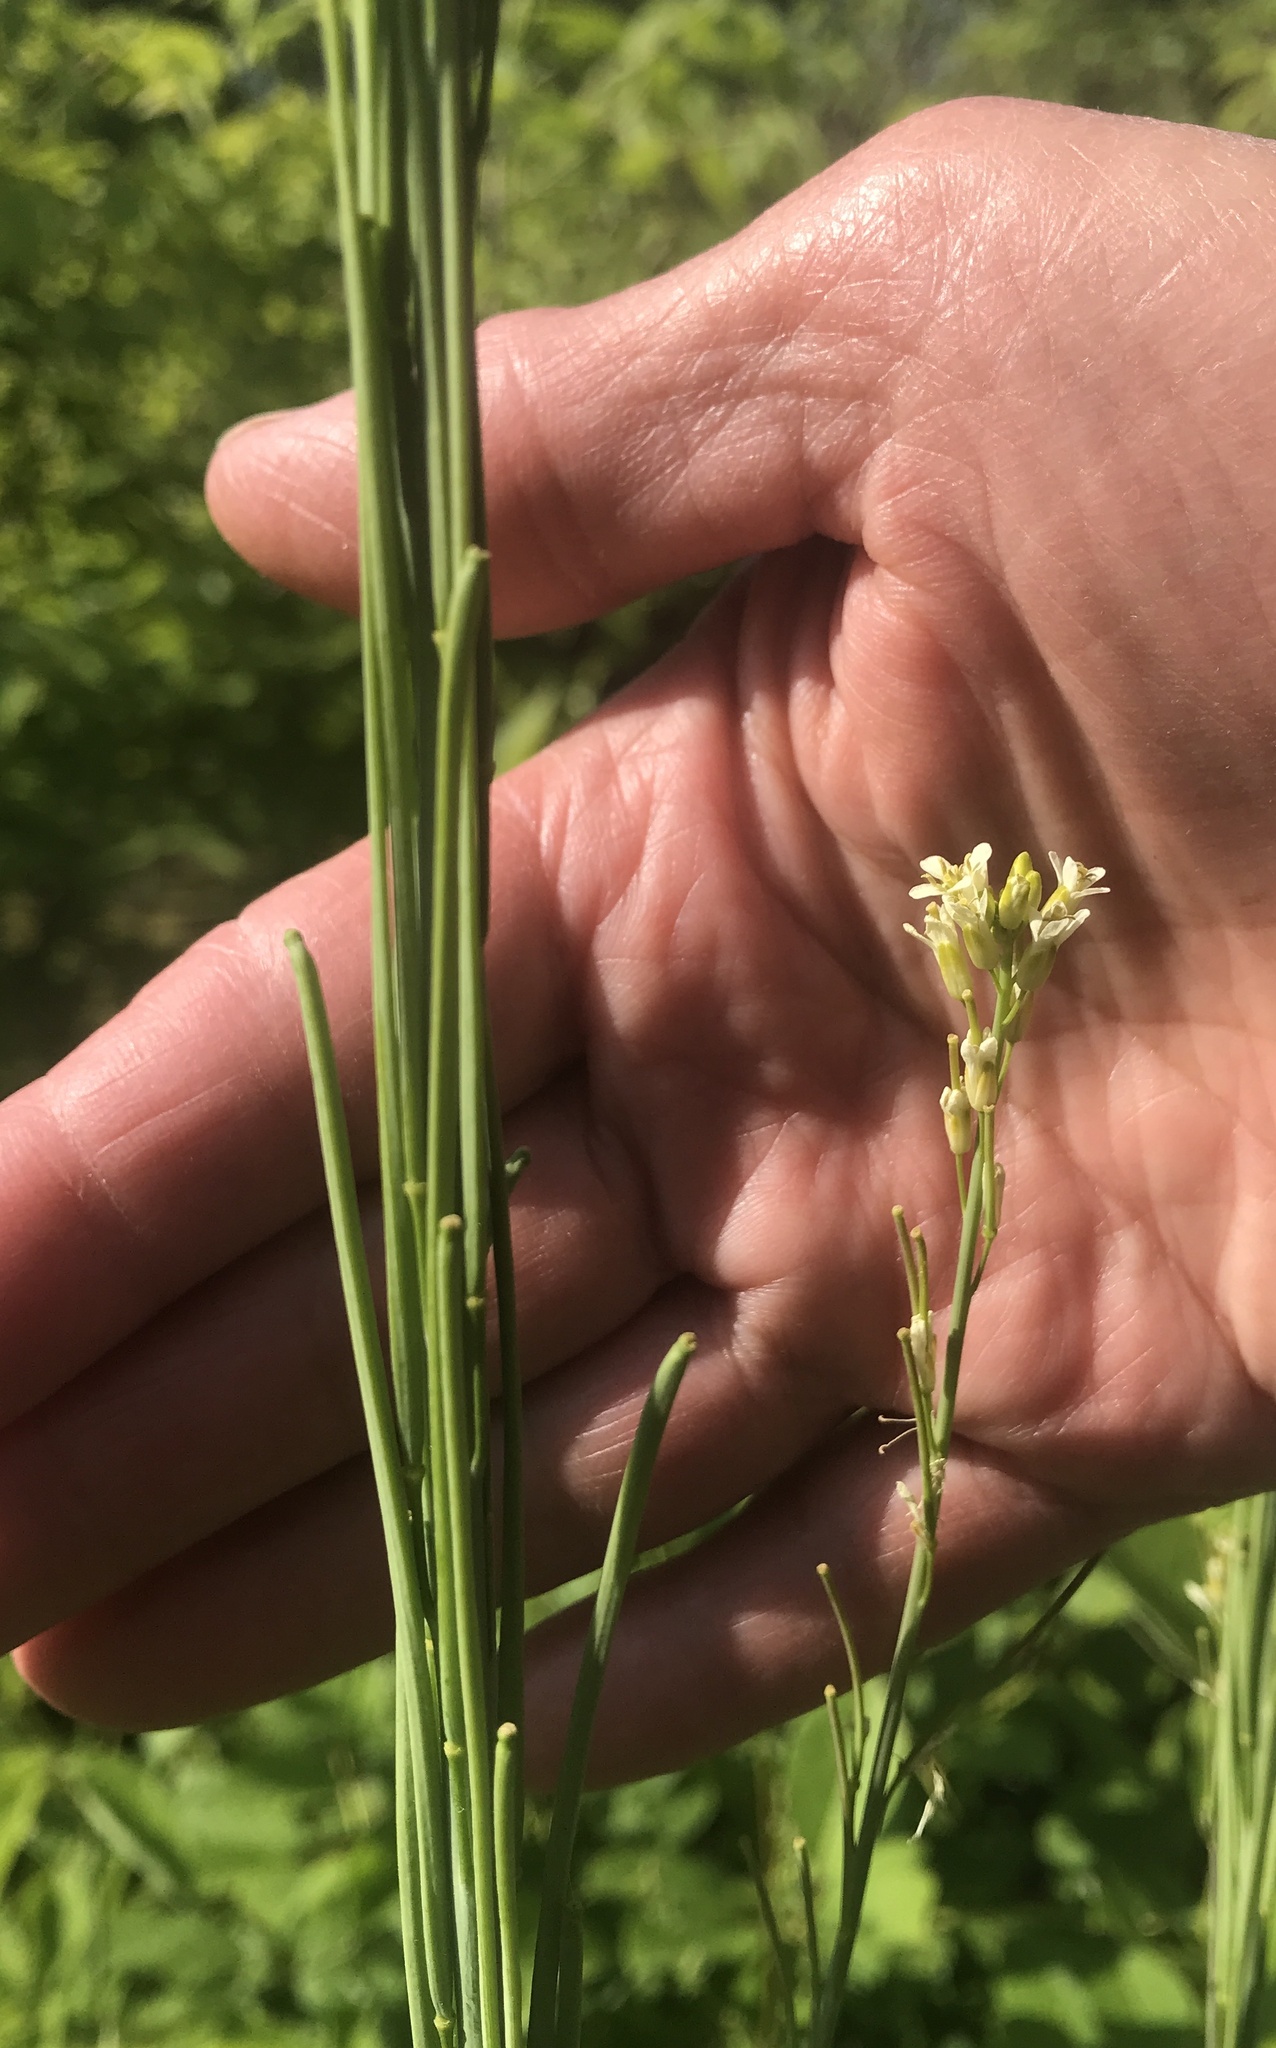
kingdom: Plantae
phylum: Tracheophyta
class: Magnoliopsida
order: Brassicales
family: Brassicaceae
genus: Turritis
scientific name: Turritis glabra
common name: Tower rockcress
